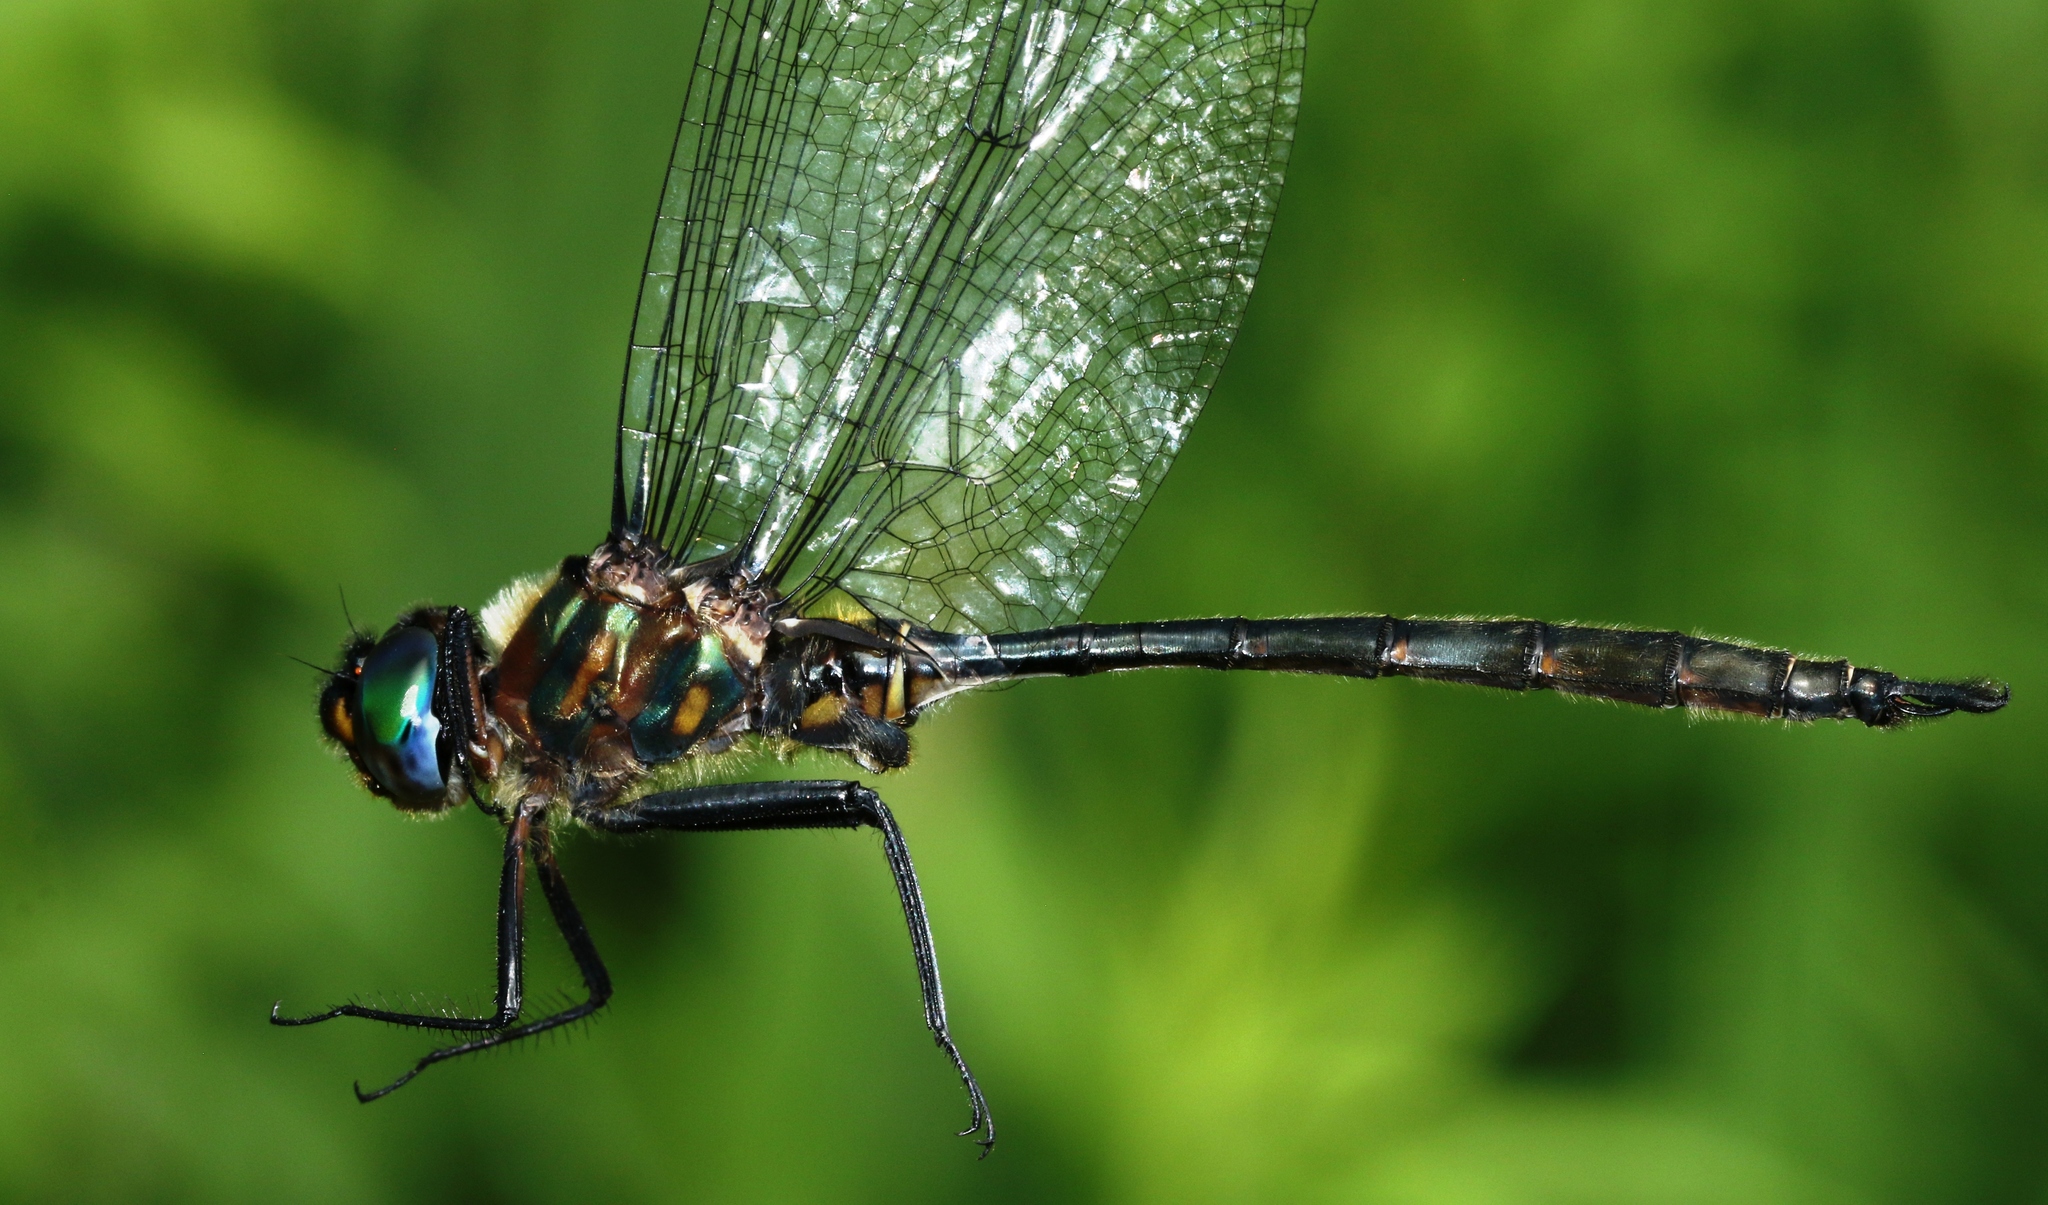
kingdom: Animalia
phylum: Arthropoda
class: Insecta
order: Odonata
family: Corduliidae
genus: Somatochlora
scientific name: Somatochlora williamsoni
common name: Williamson's emerald
